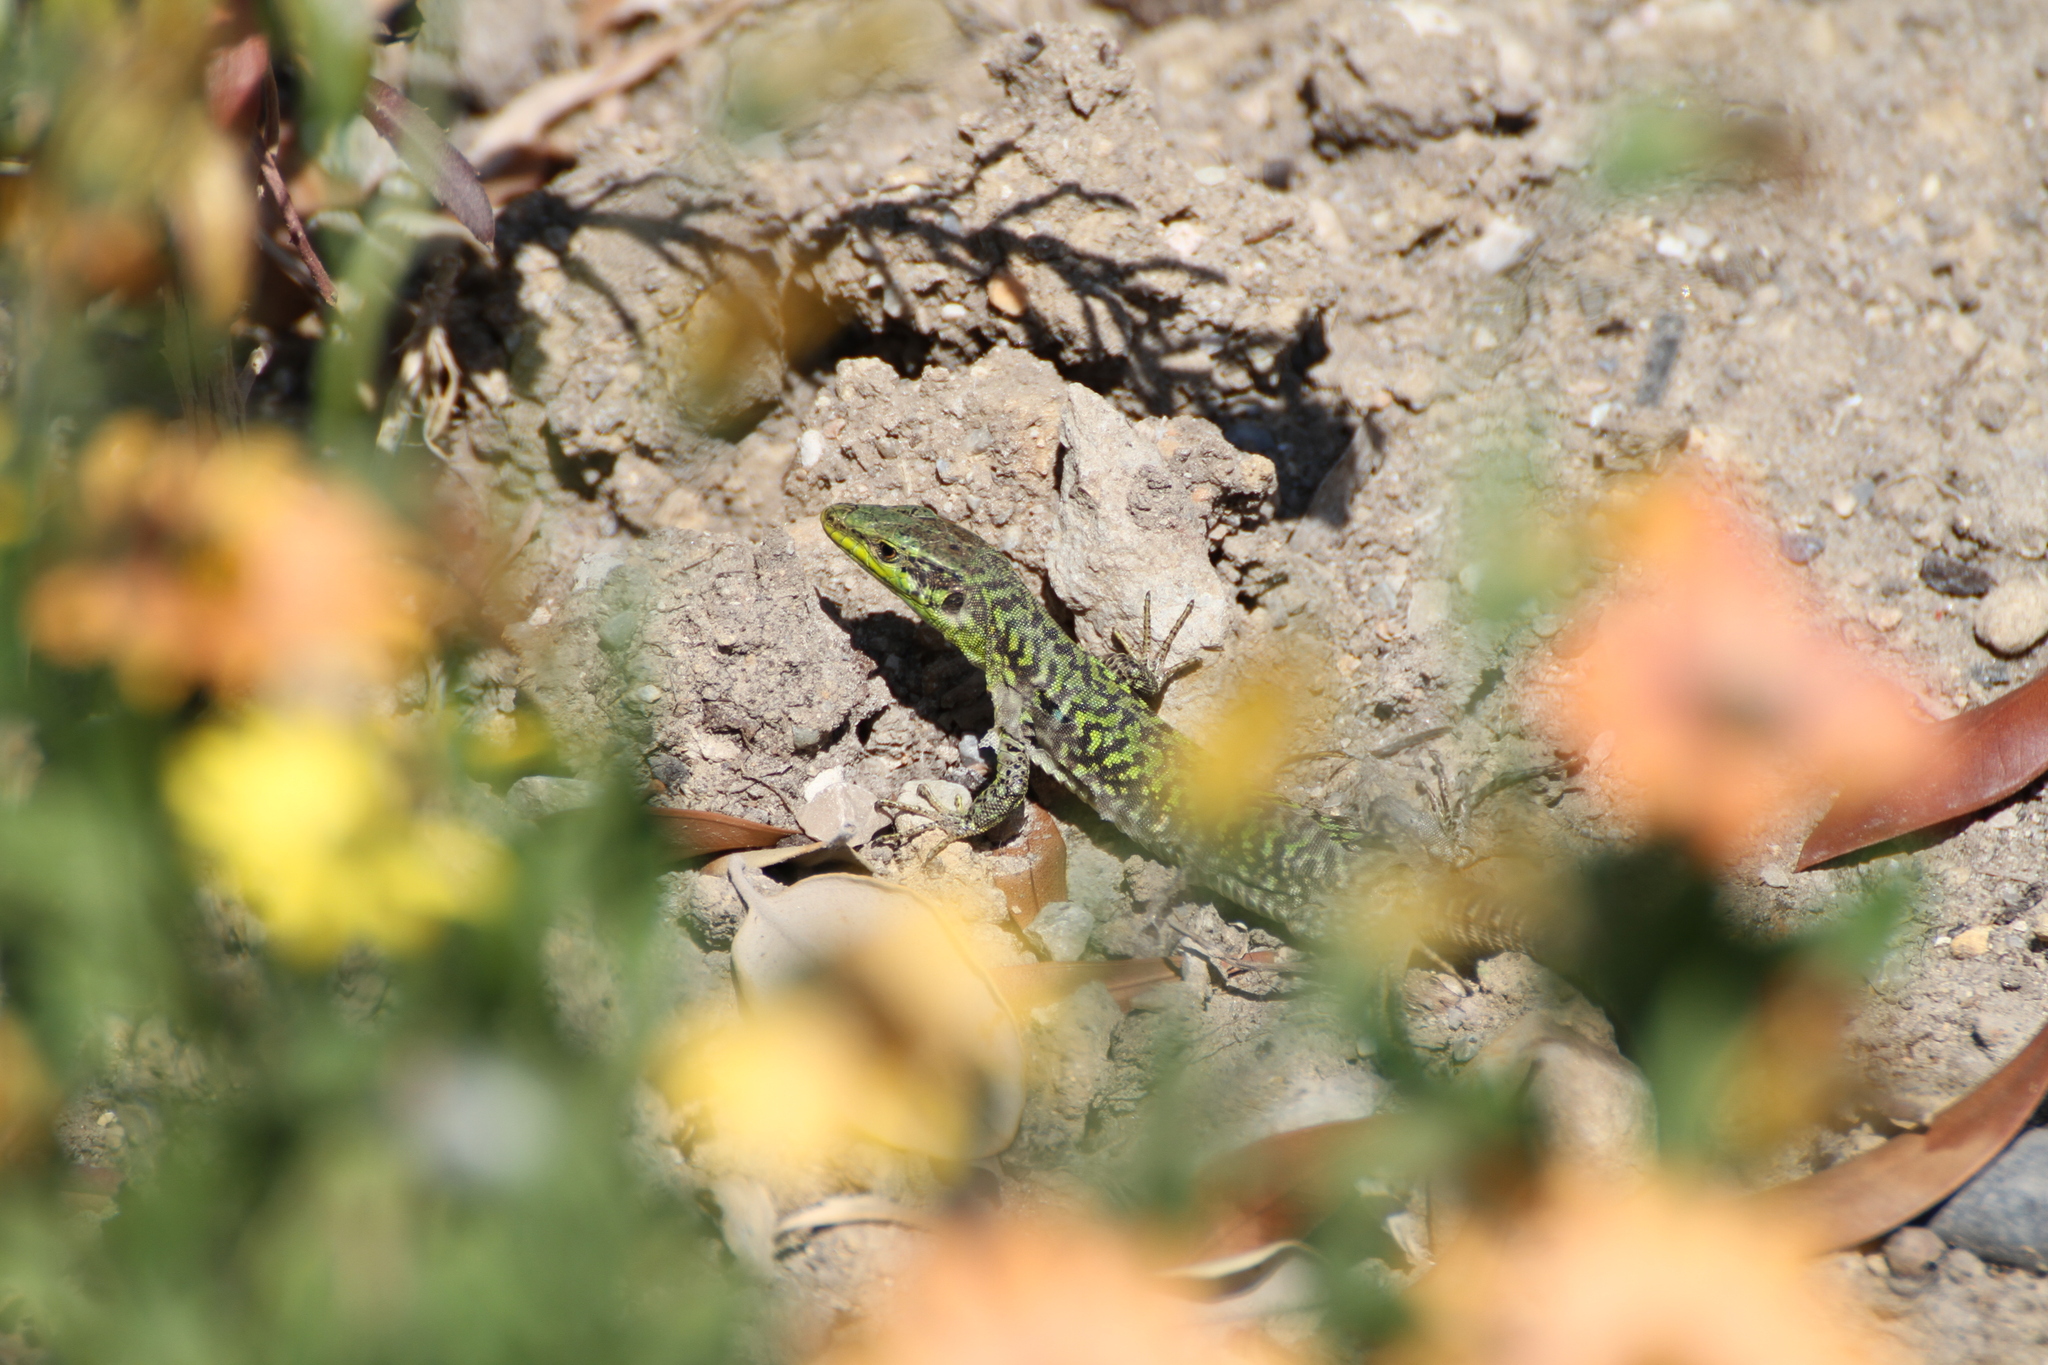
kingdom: Animalia
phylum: Chordata
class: Squamata
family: Lacertidae
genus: Podarcis
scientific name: Podarcis siculus
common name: Italian wall lizard
